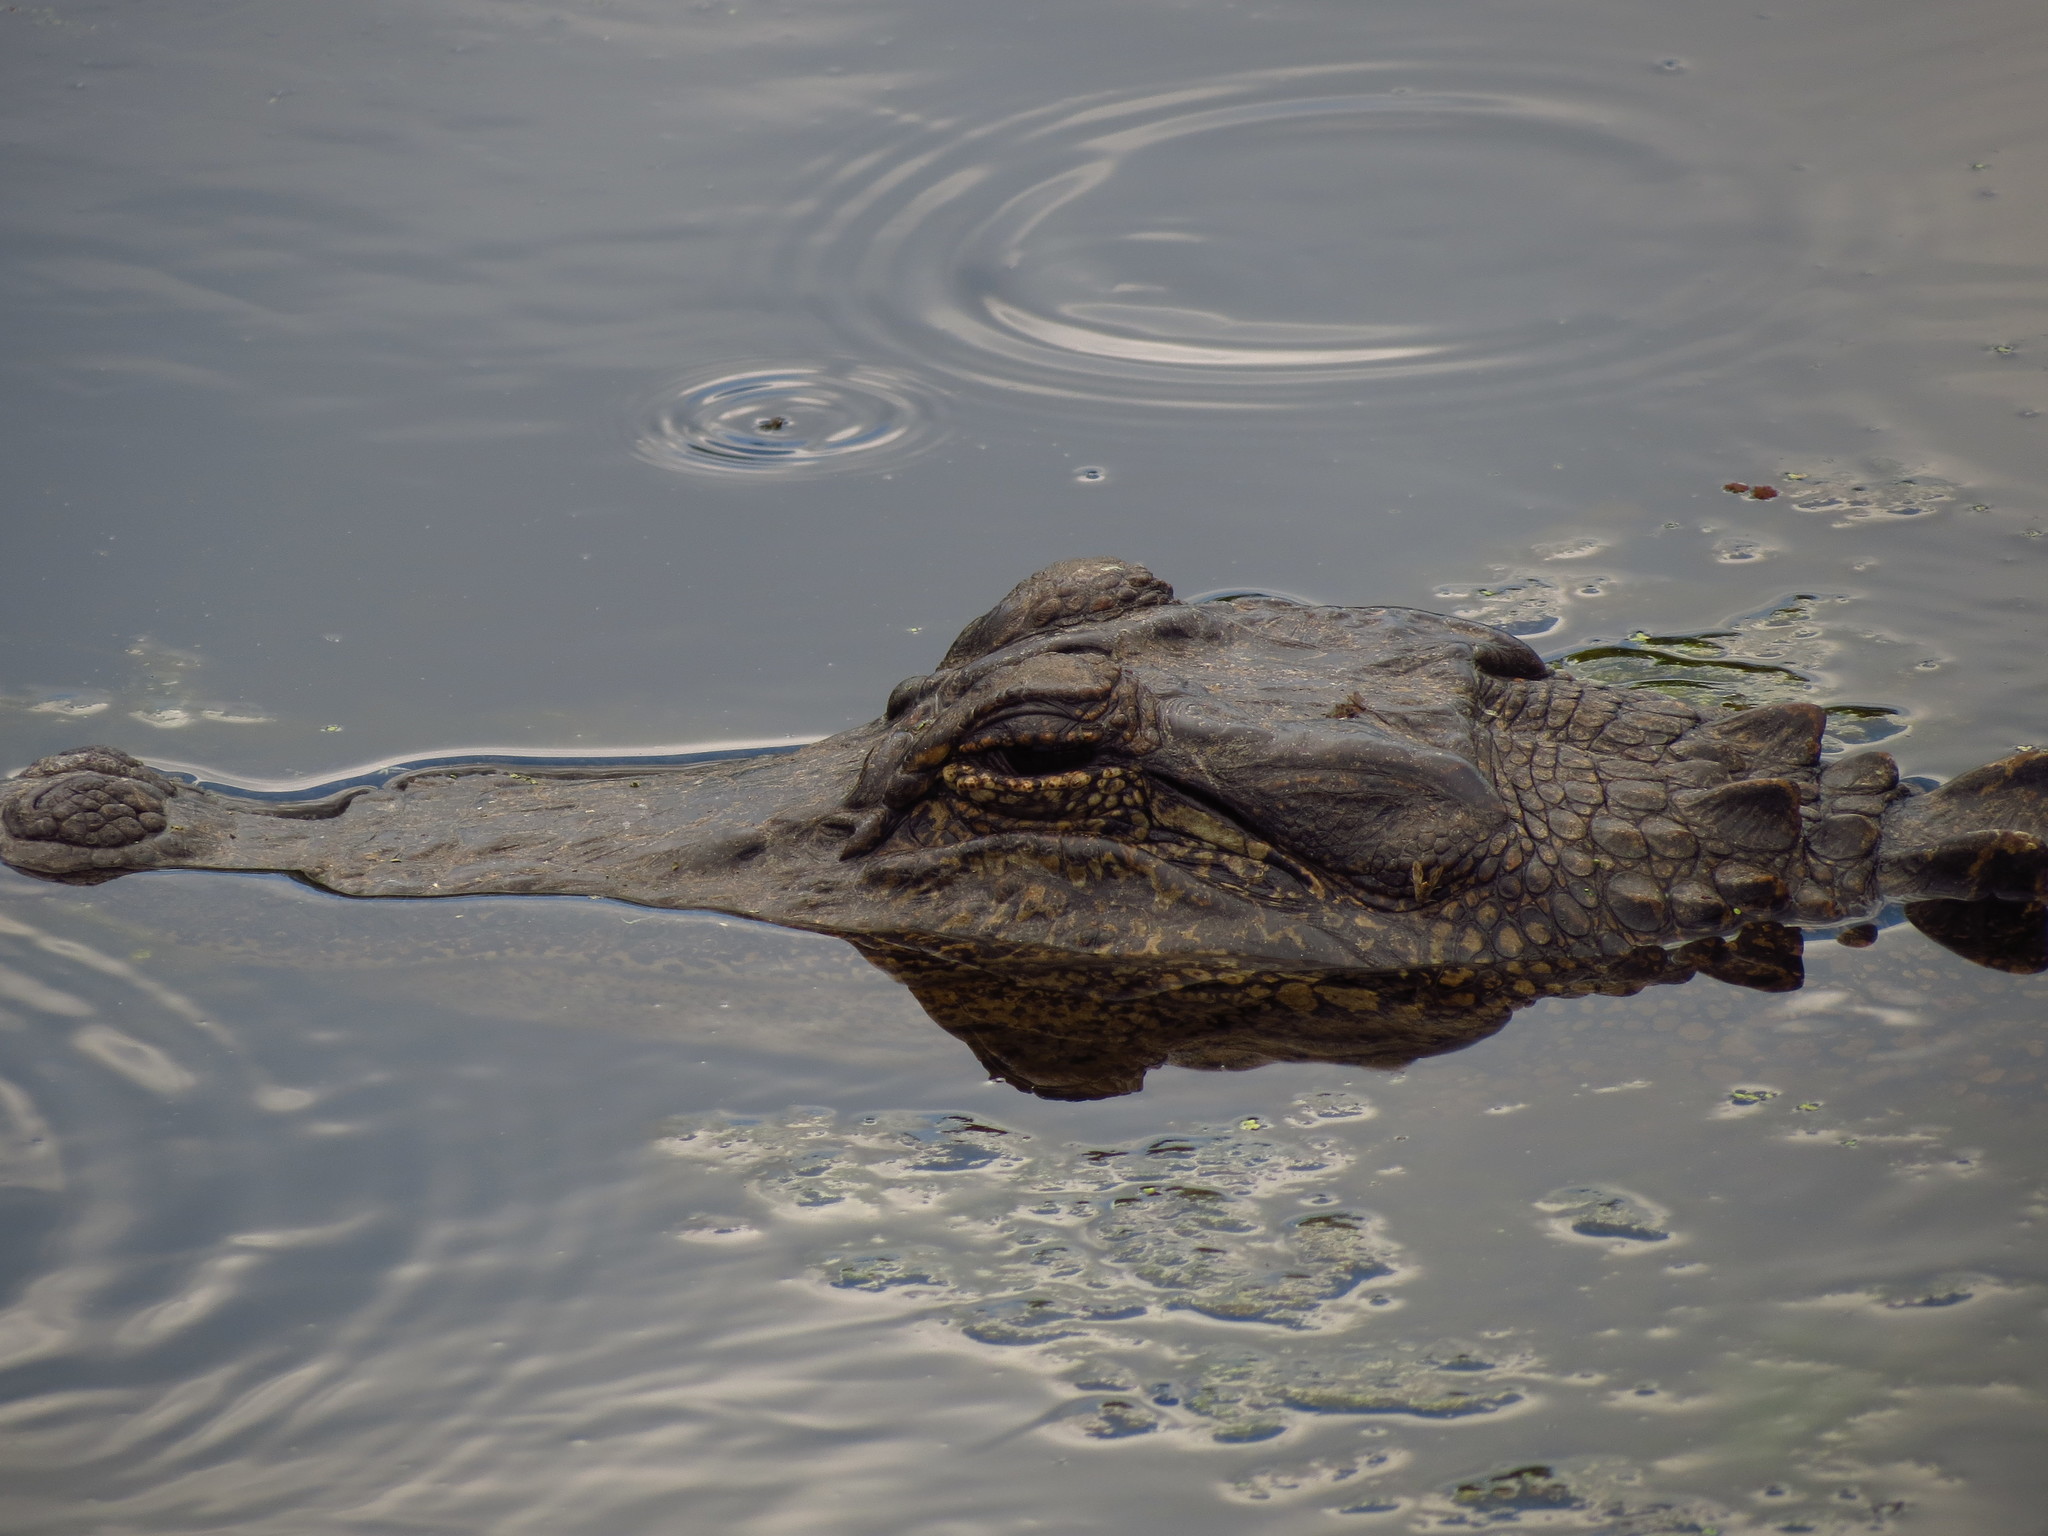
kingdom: Animalia
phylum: Chordata
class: Crocodylia
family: Alligatoridae
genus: Alligator
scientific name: Alligator mississippiensis
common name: American alligator
